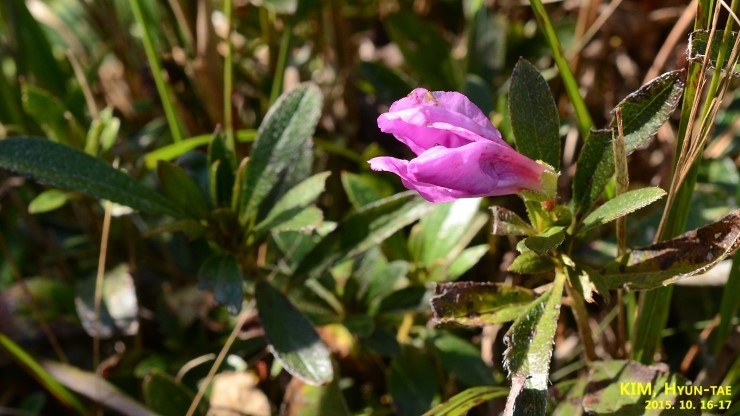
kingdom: Plantae
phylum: Tracheophyta
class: Magnoliopsida
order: Ericales
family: Ericaceae
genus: Rhododendron
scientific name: Rhododendron yedoense
